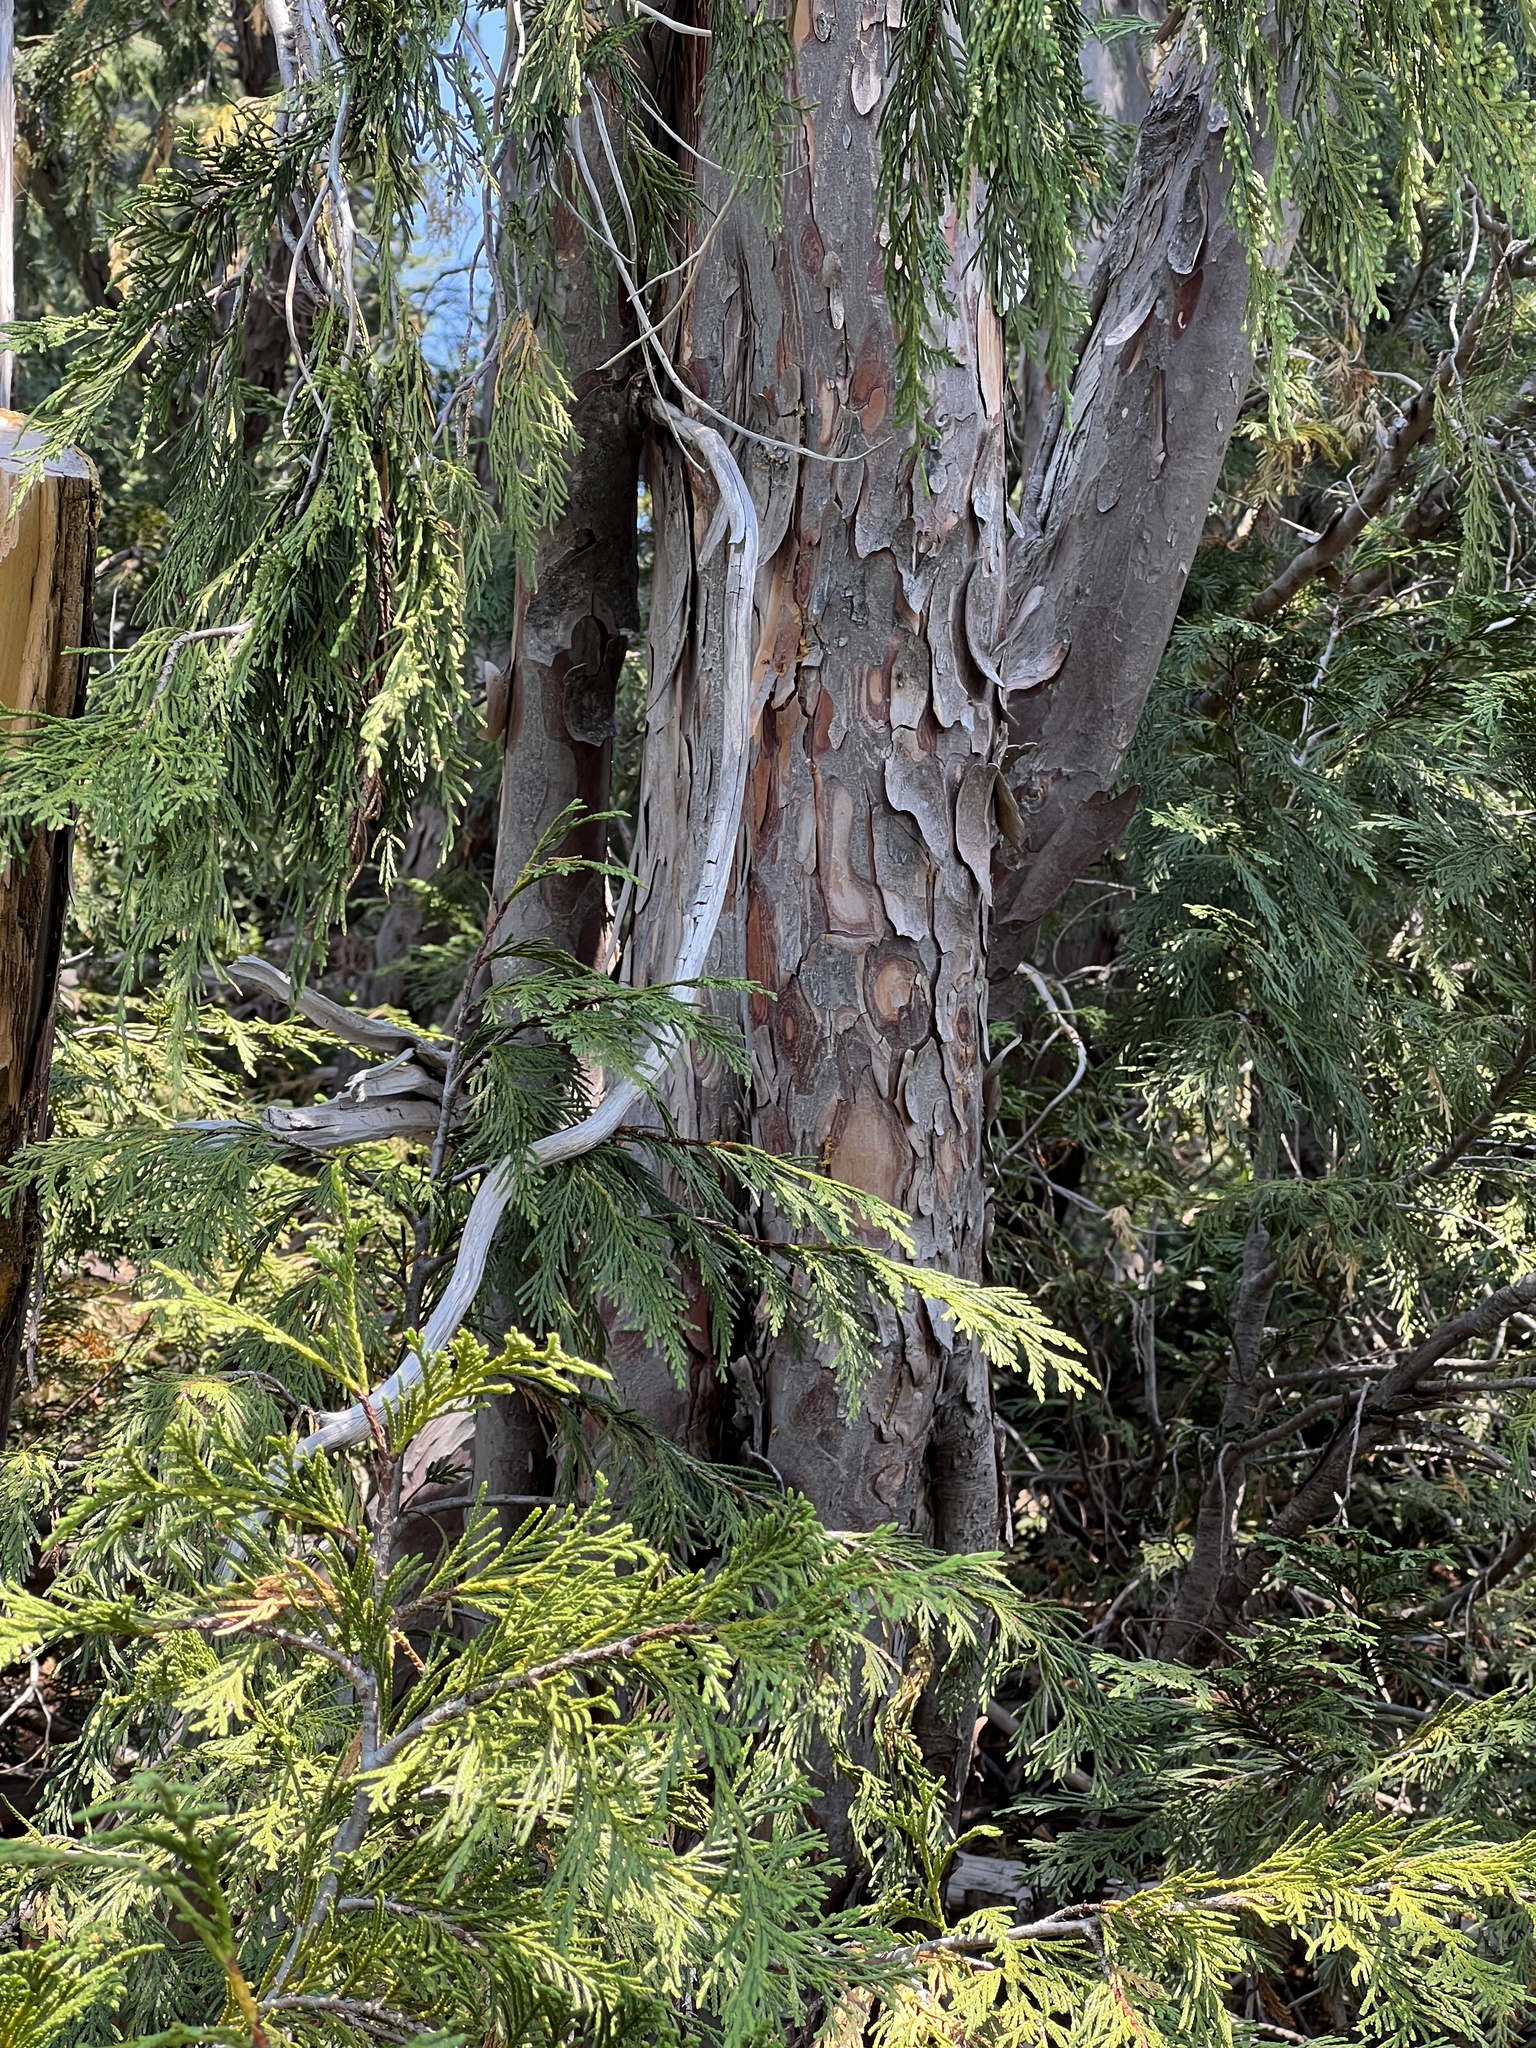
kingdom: Plantae
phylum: Tracheophyta
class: Pinopsida
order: Pinales
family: Cupressaceae
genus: Xanthocyparis
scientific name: Xanthocyparis nootkatensis
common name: Nootka cypress
